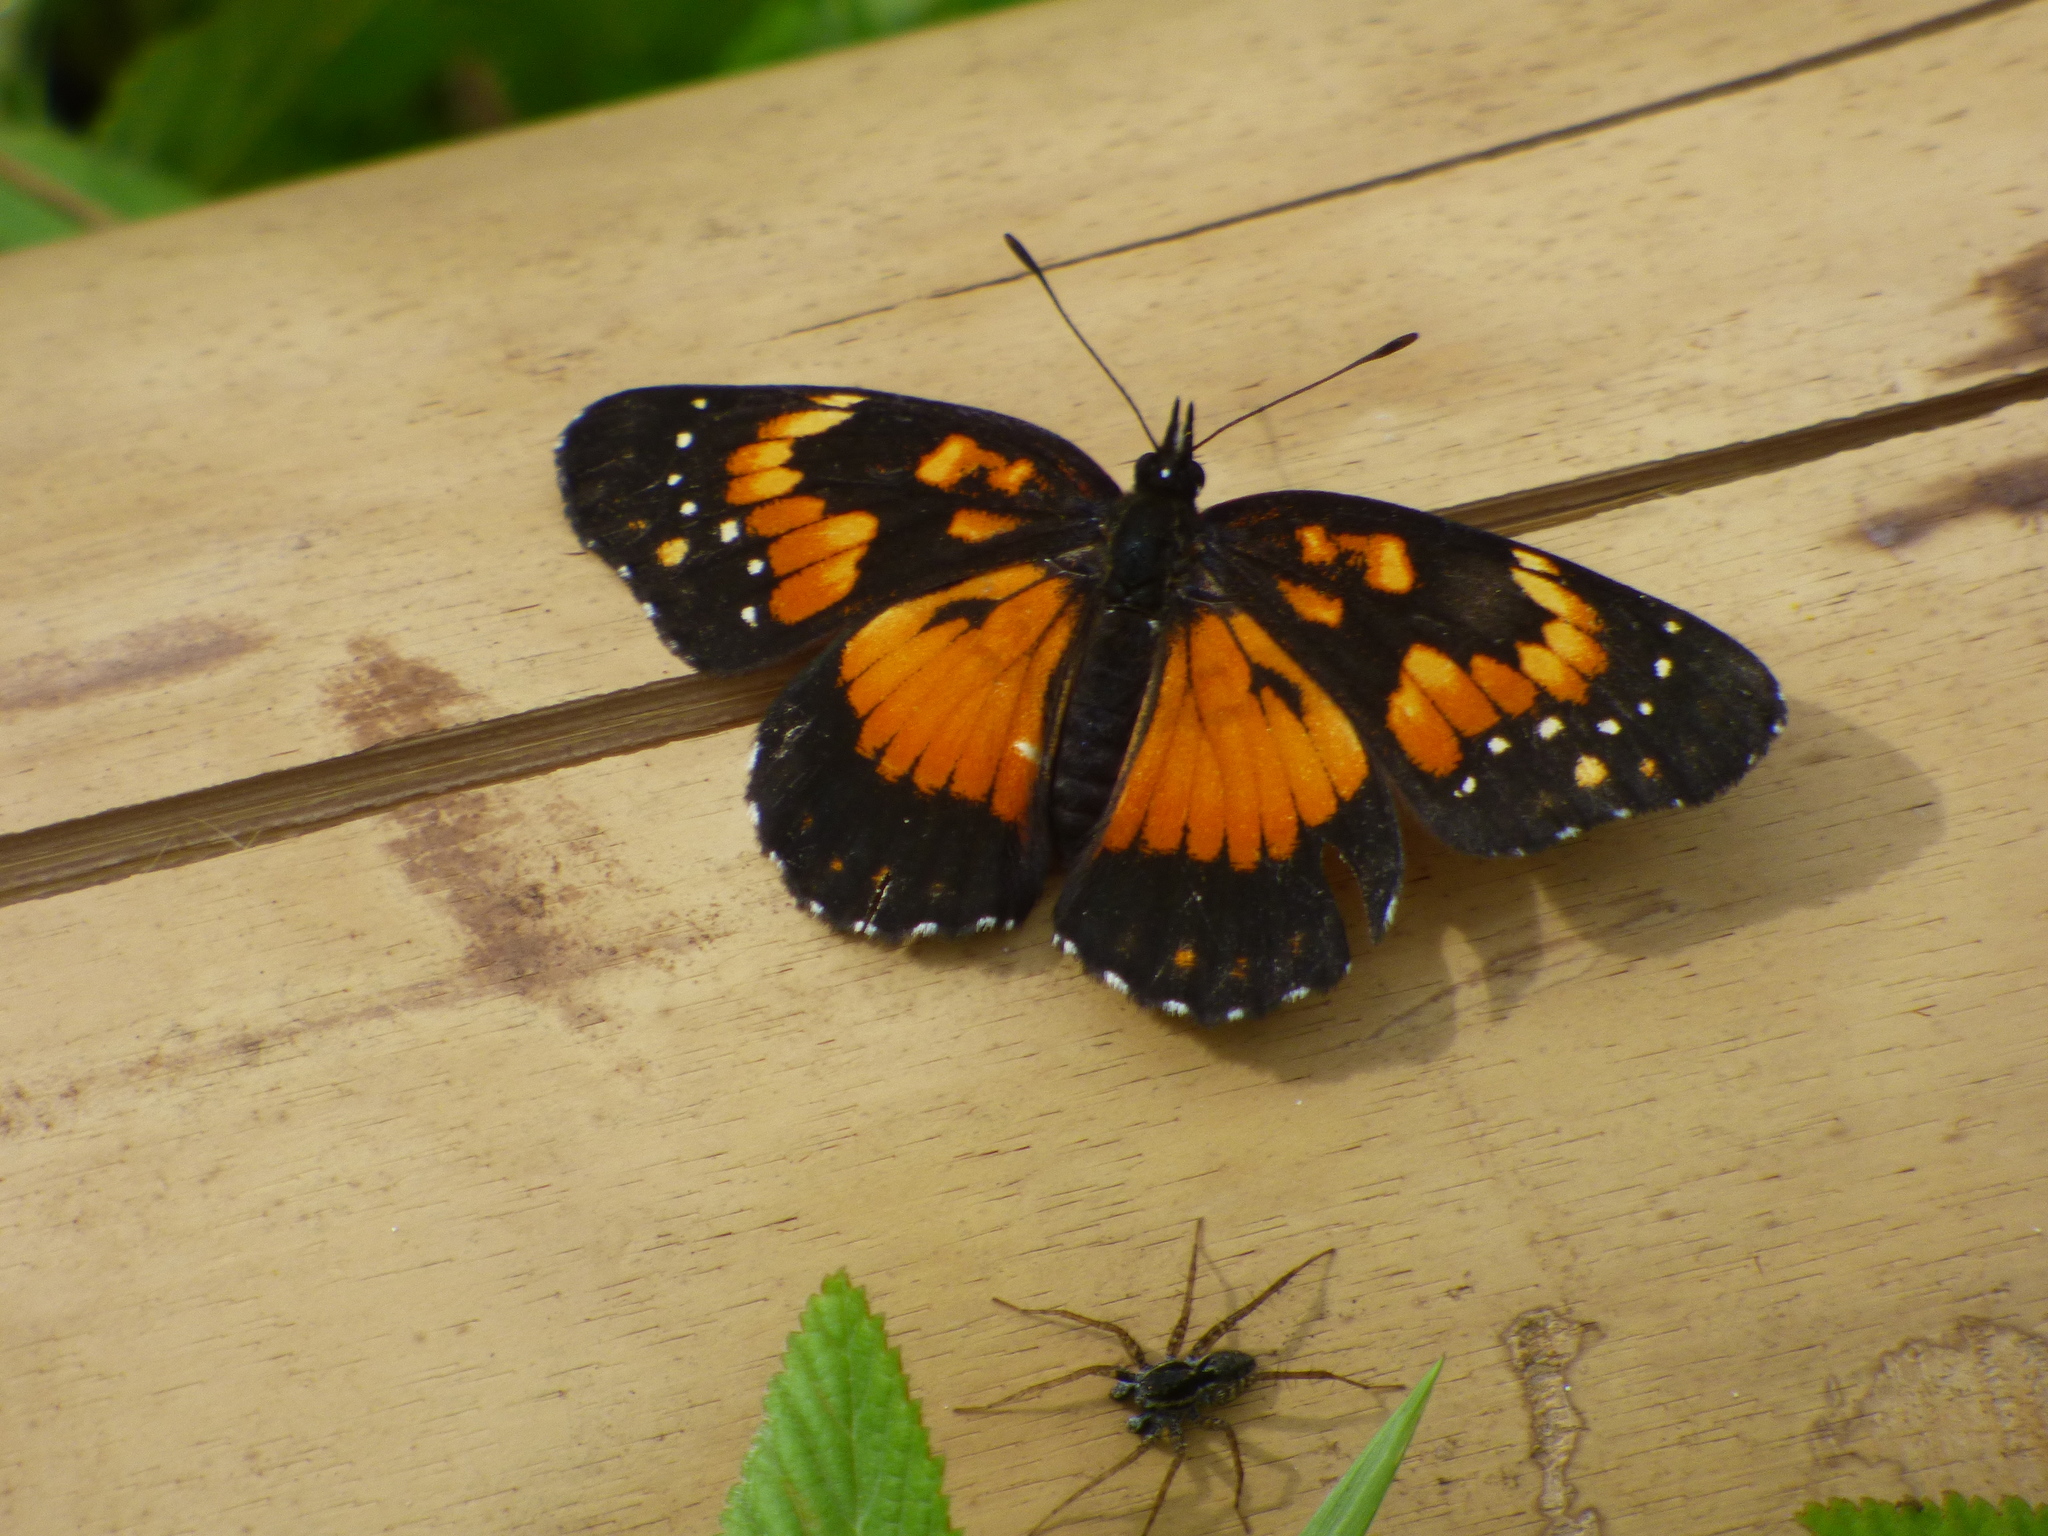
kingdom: Animalia
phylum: Arthropoda
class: Insecta
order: Lepidoptera
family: Nymphalidae
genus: Chlosyne
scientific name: Chlosyne lacinia
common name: Bordered patch
